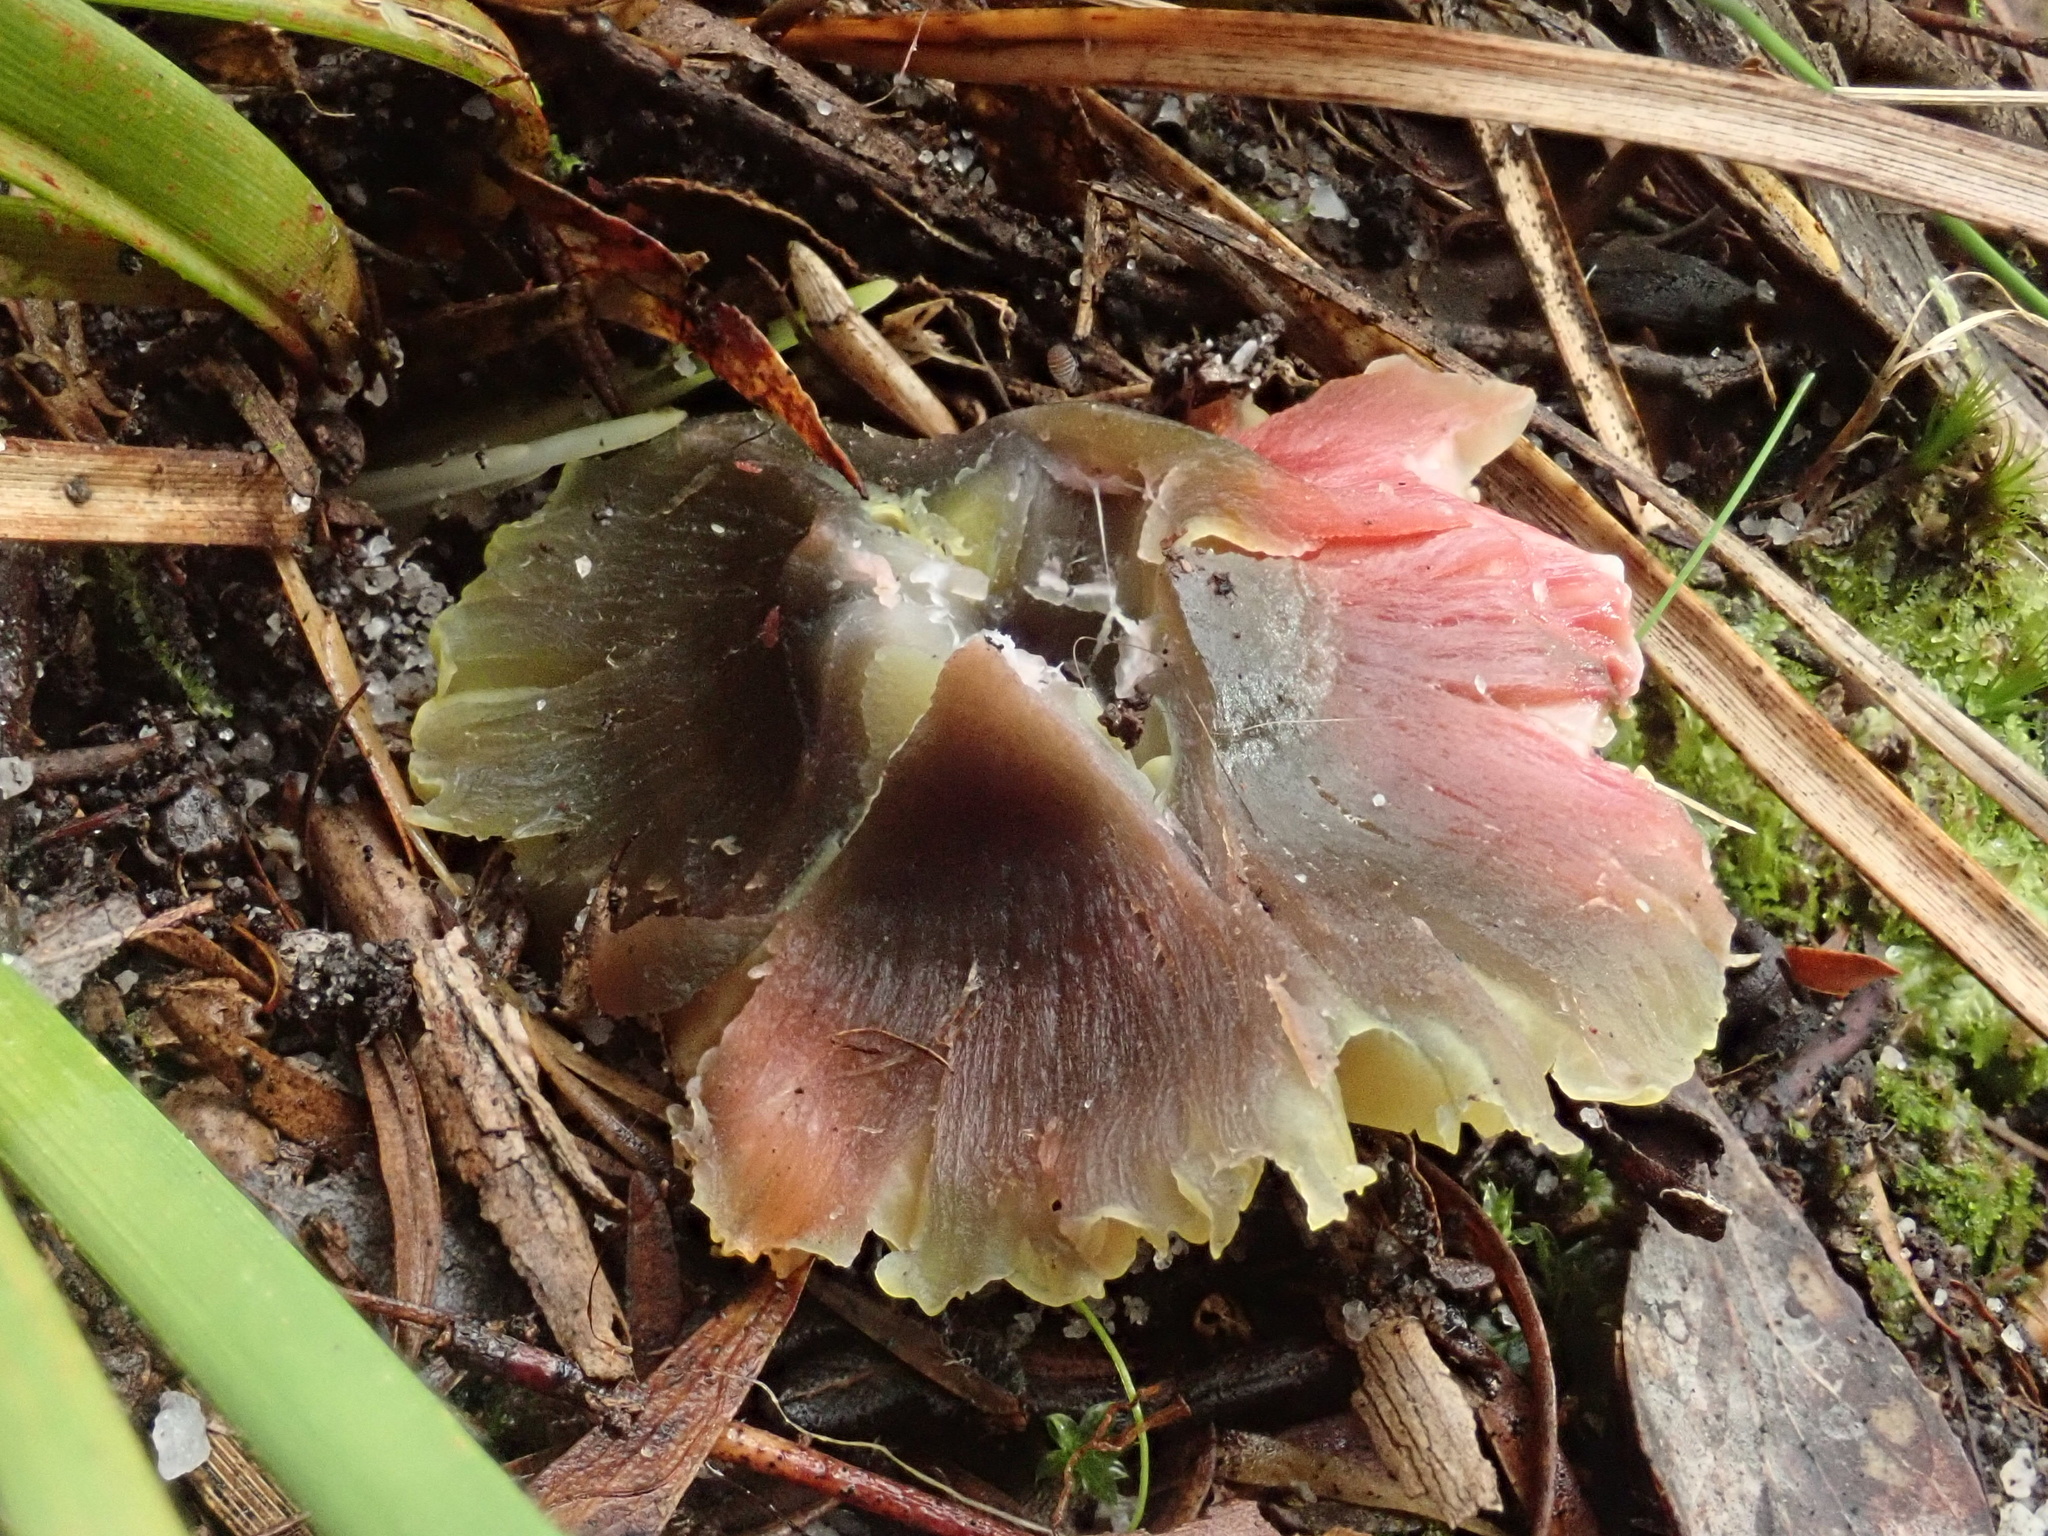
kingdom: Fungi
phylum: Basidiomycota
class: Agaricomycetes
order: Agaricales
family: Hygrophoraceae
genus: Humidicutis
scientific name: Humidicutis arcohastata
